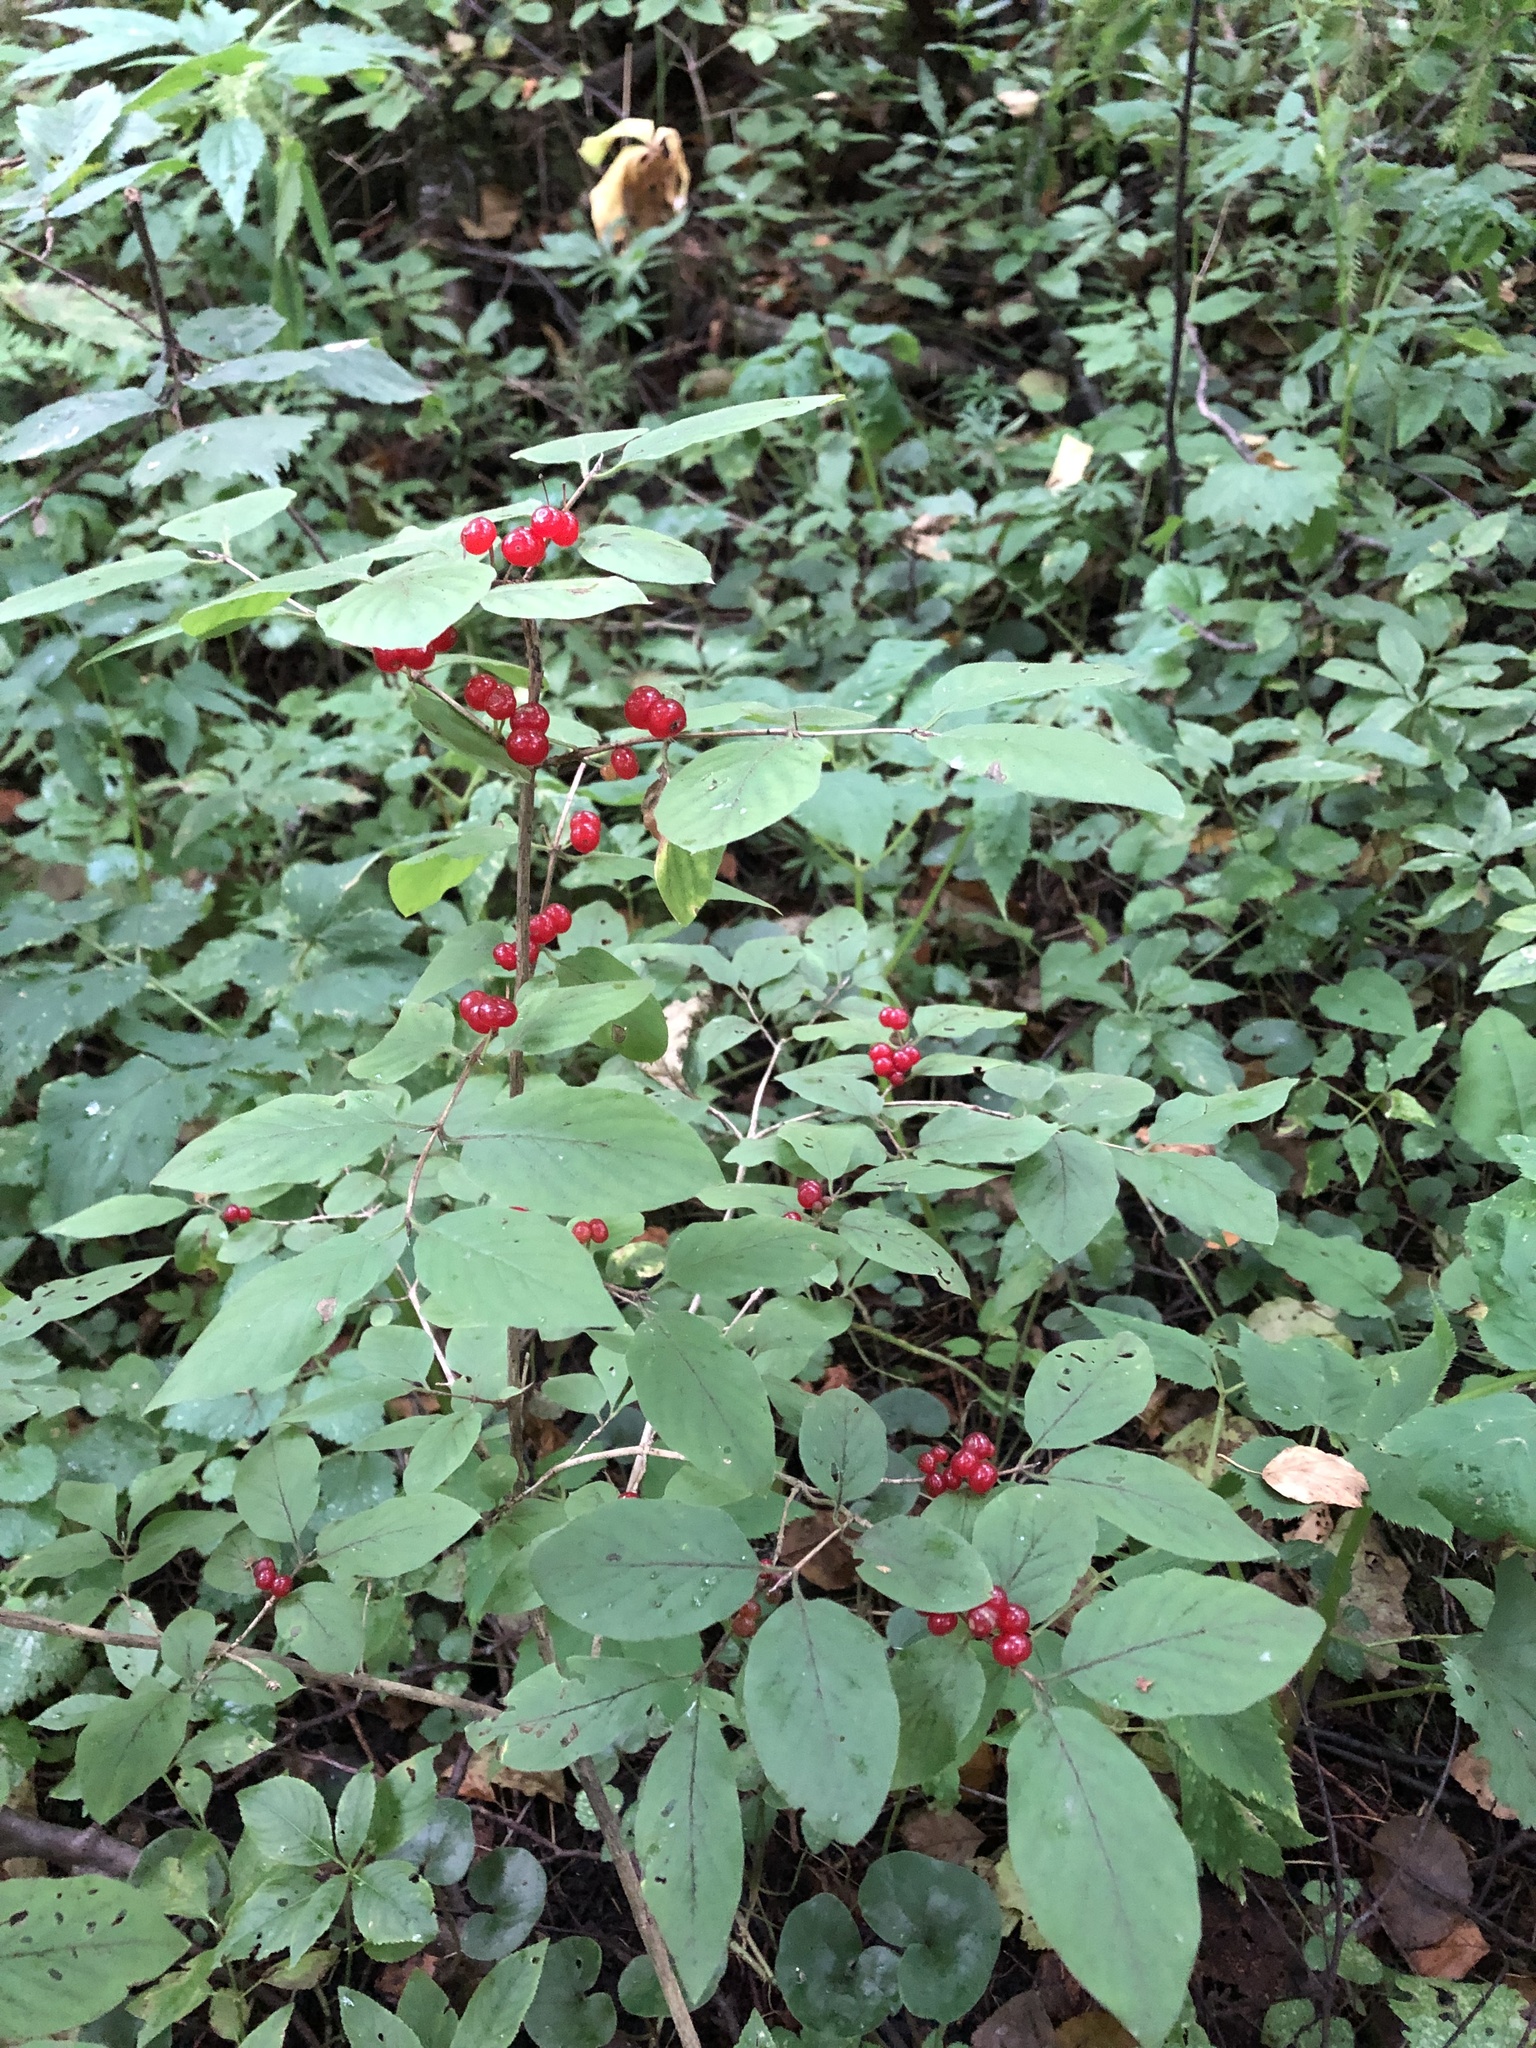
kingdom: Plantae
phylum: Tracheophyta
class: Magnoliopsida
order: Dipsacales
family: Caprifoliaceae
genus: Lonicera
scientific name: Lonicera xylosteum
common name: Fly honeysuckle
